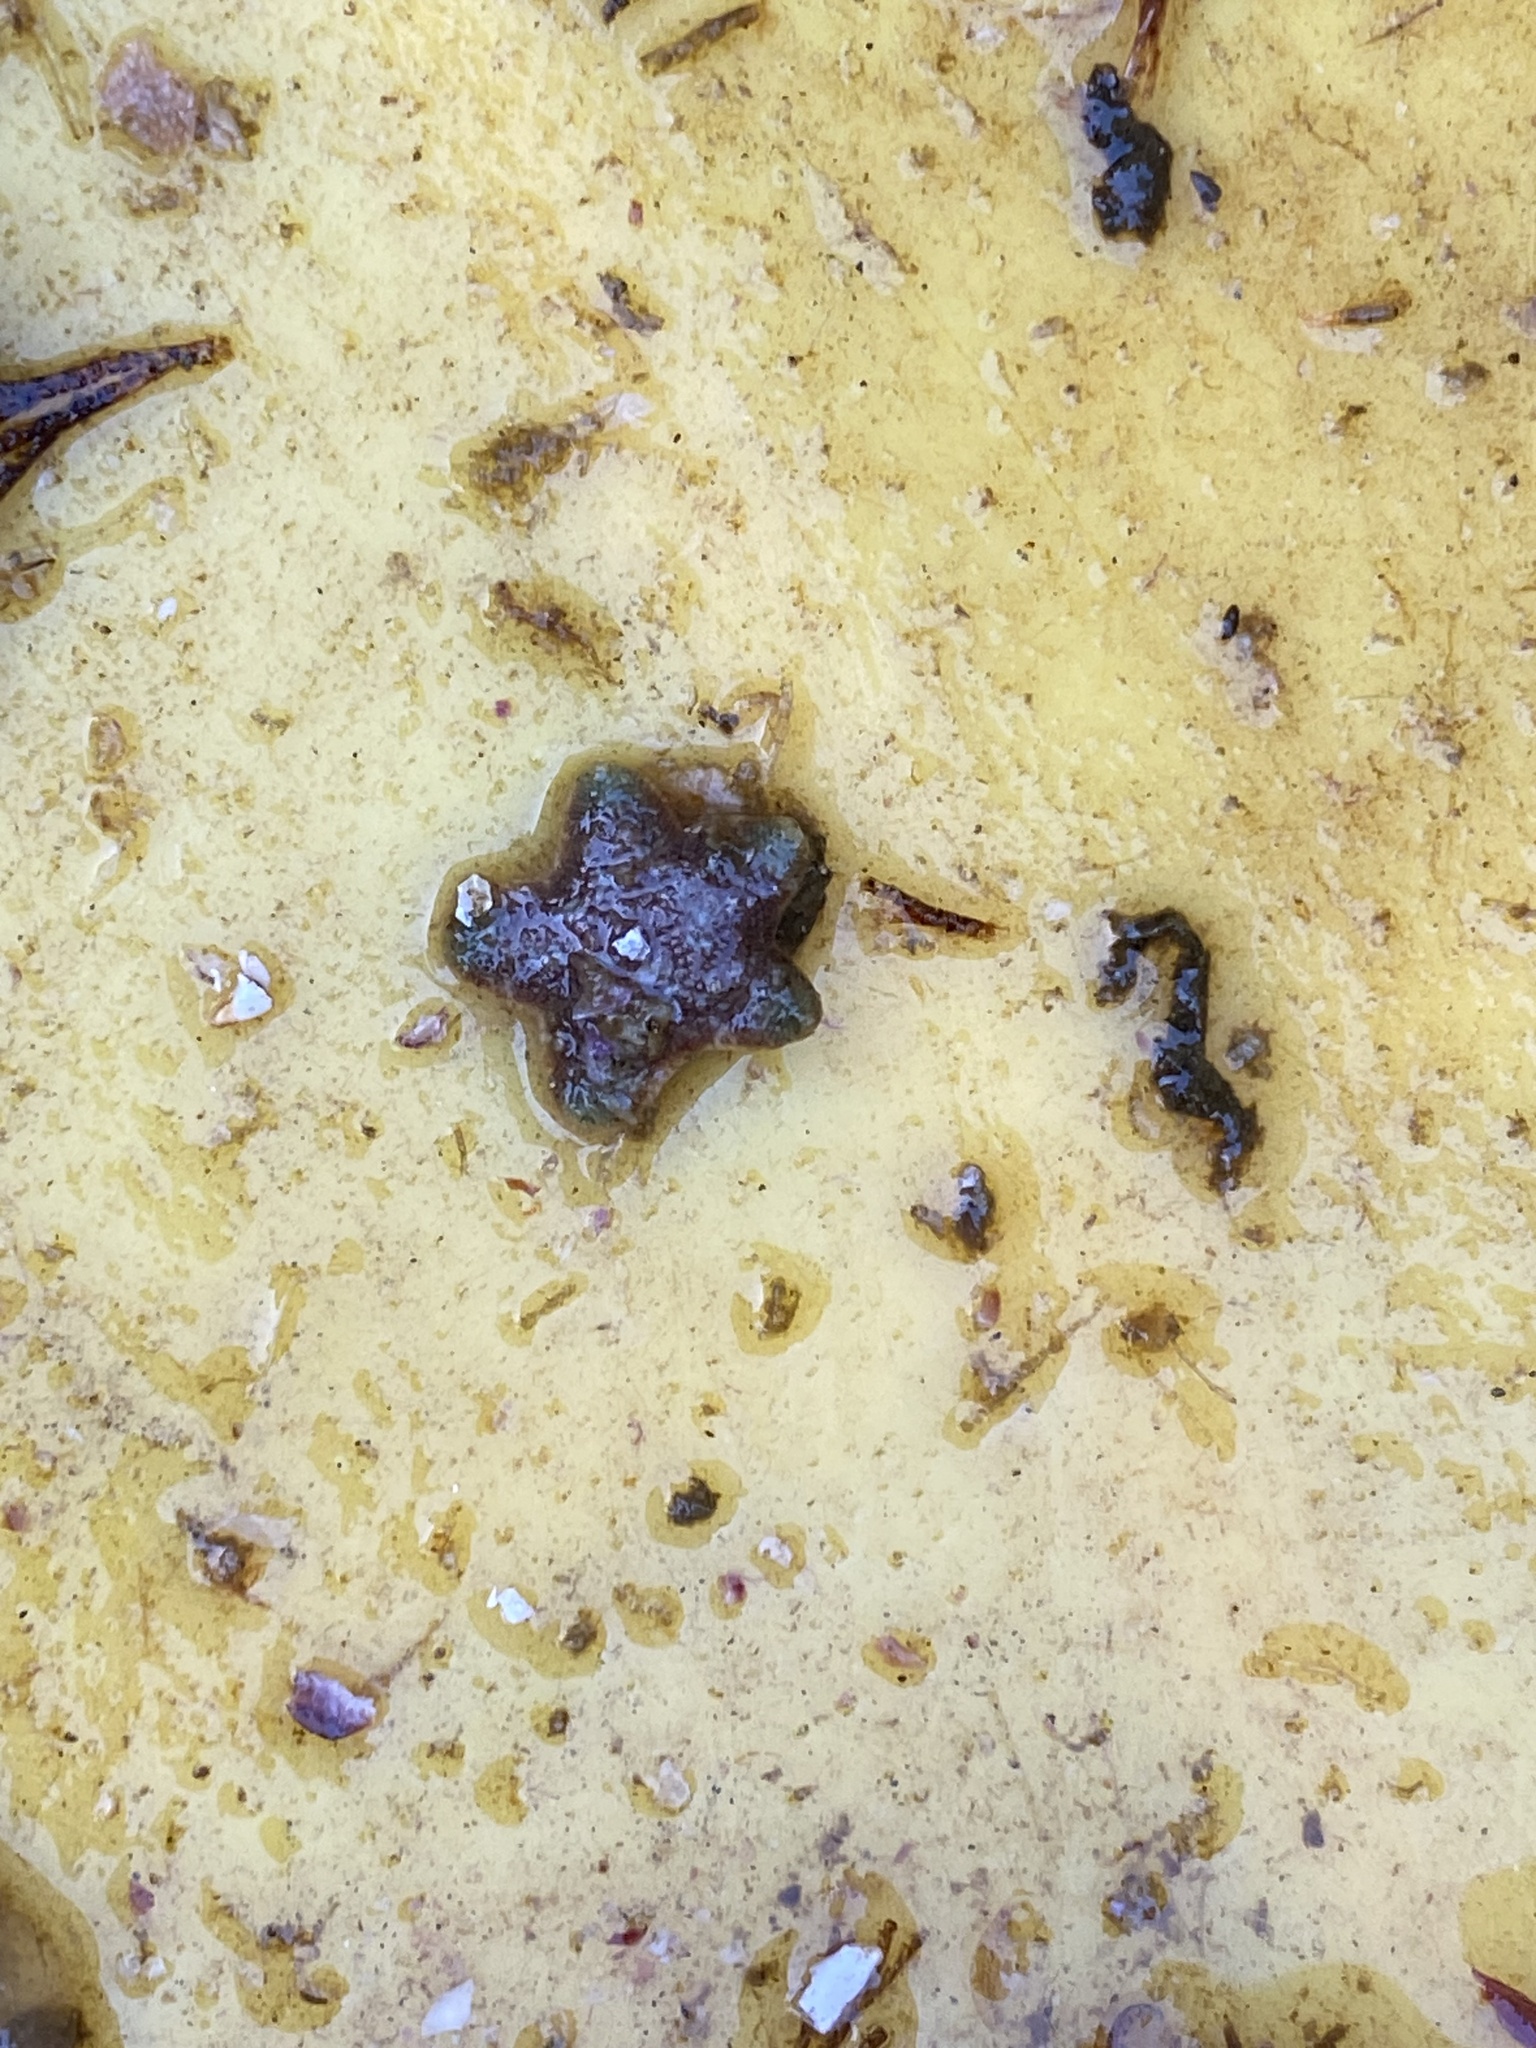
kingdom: Animalia
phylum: Echinodermata
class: Asteroidea
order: Valvatida
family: Asterinidae
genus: Patiria
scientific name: Patiria chilensis
